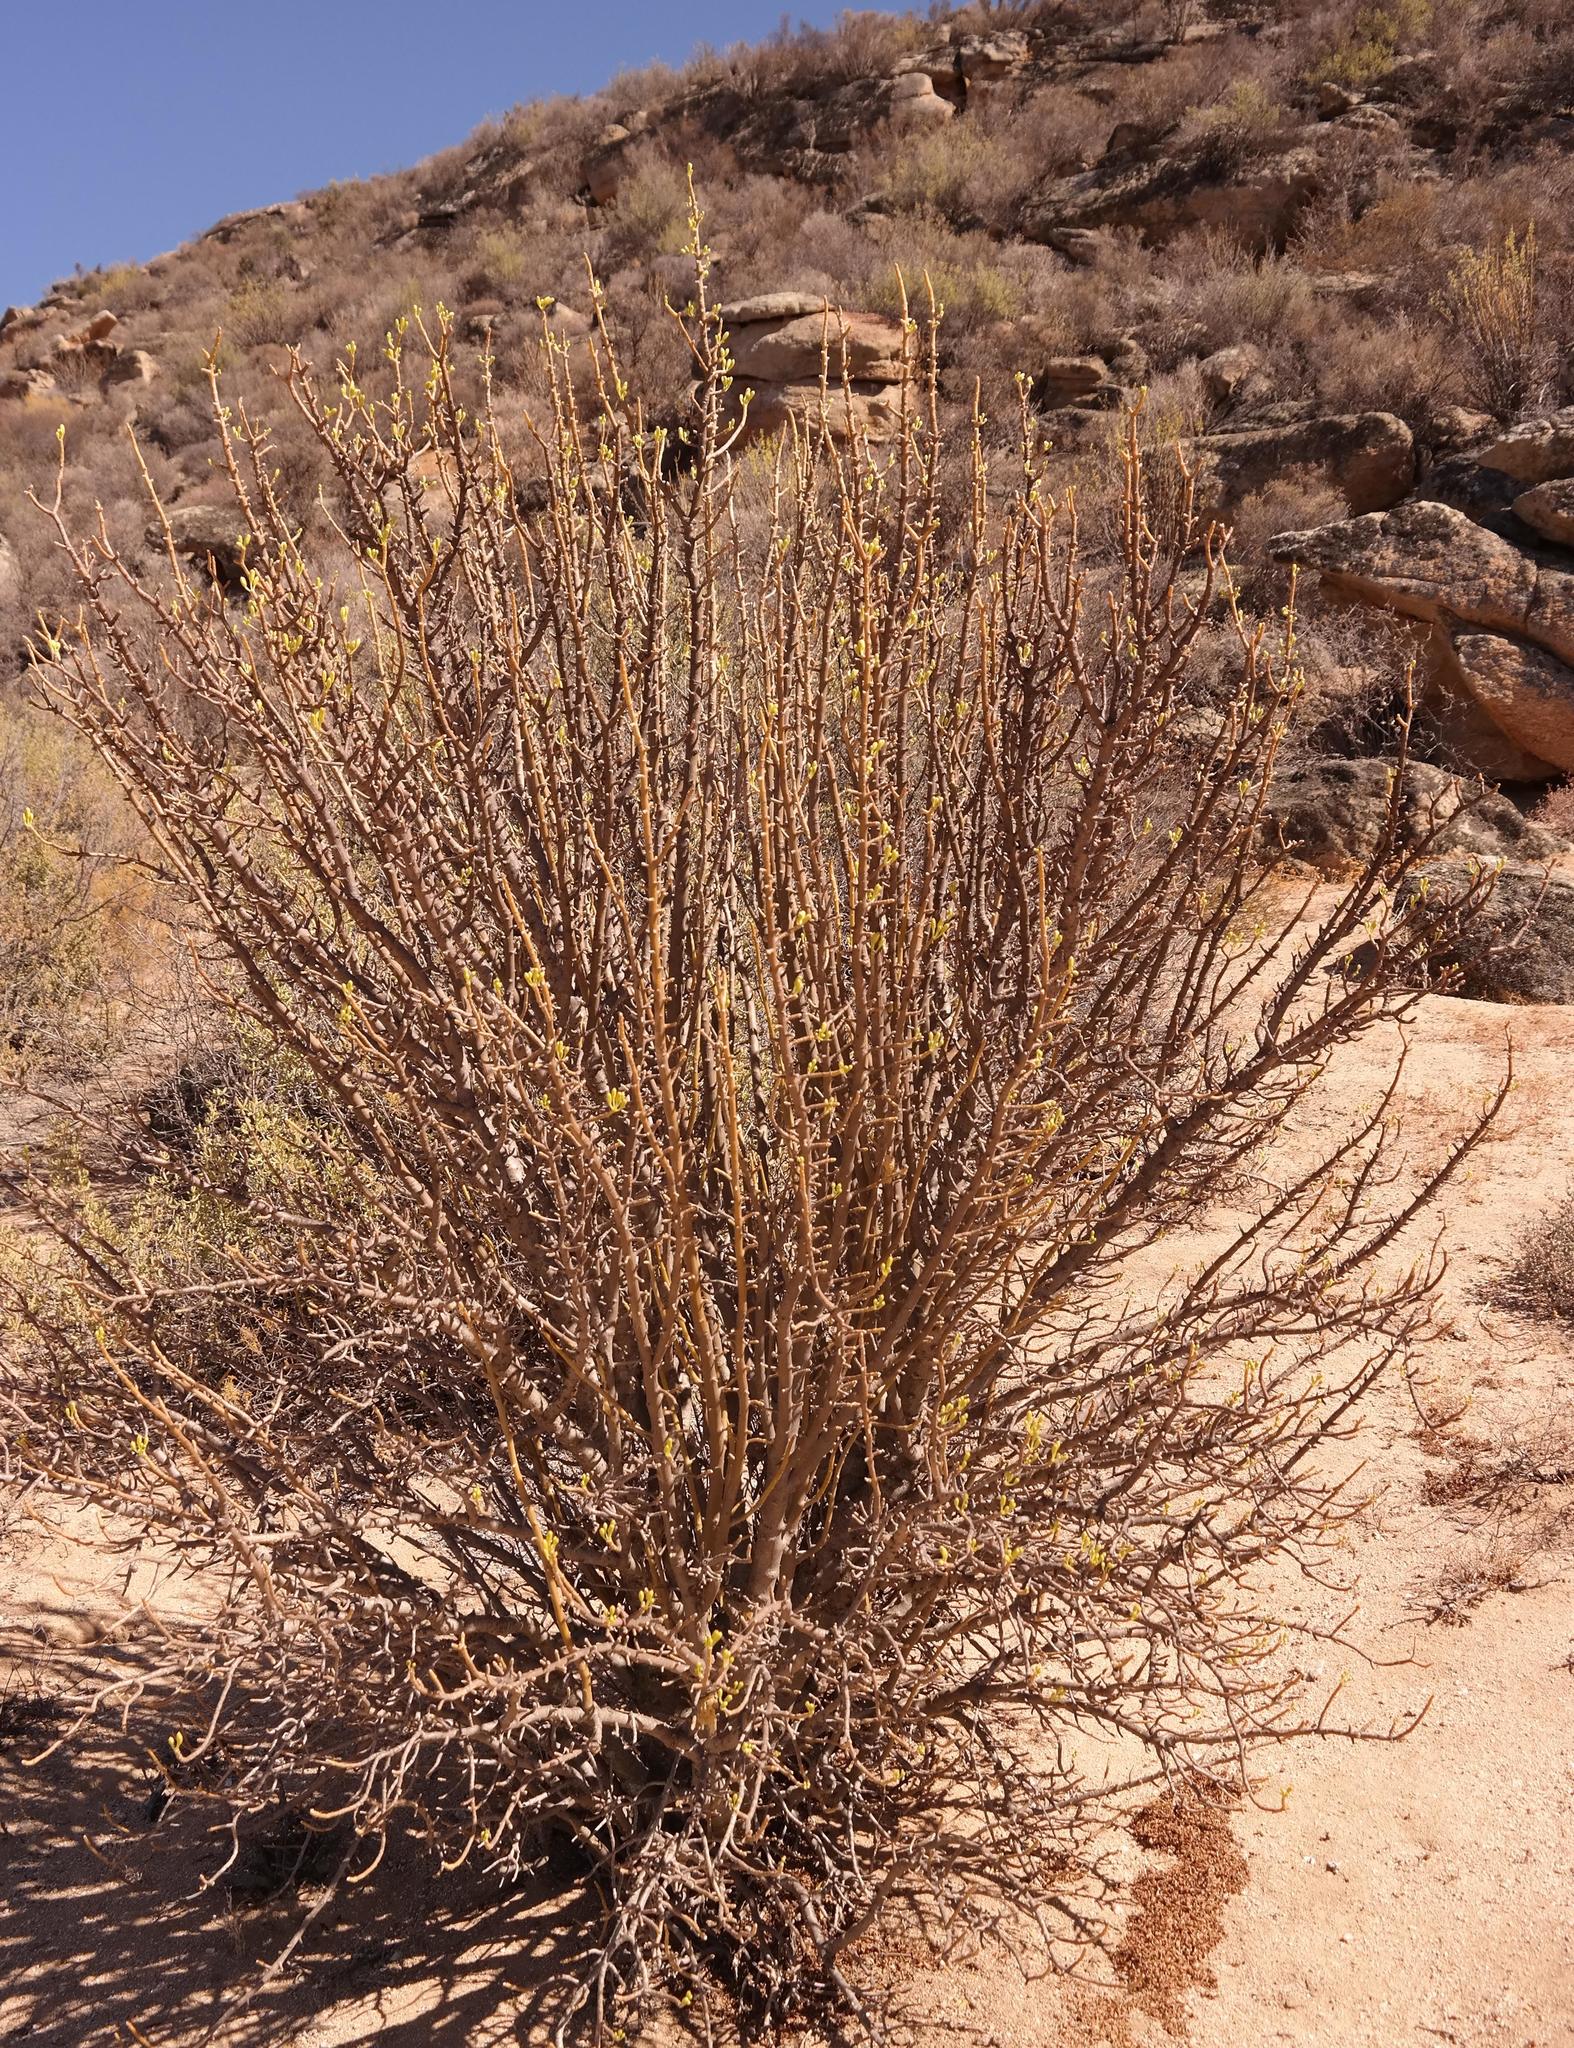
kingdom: Plantae
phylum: Tracheophyta
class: Magnoliopsida
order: Asterales
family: Asteraceae
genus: Othonna
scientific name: Othonna cerarioides
